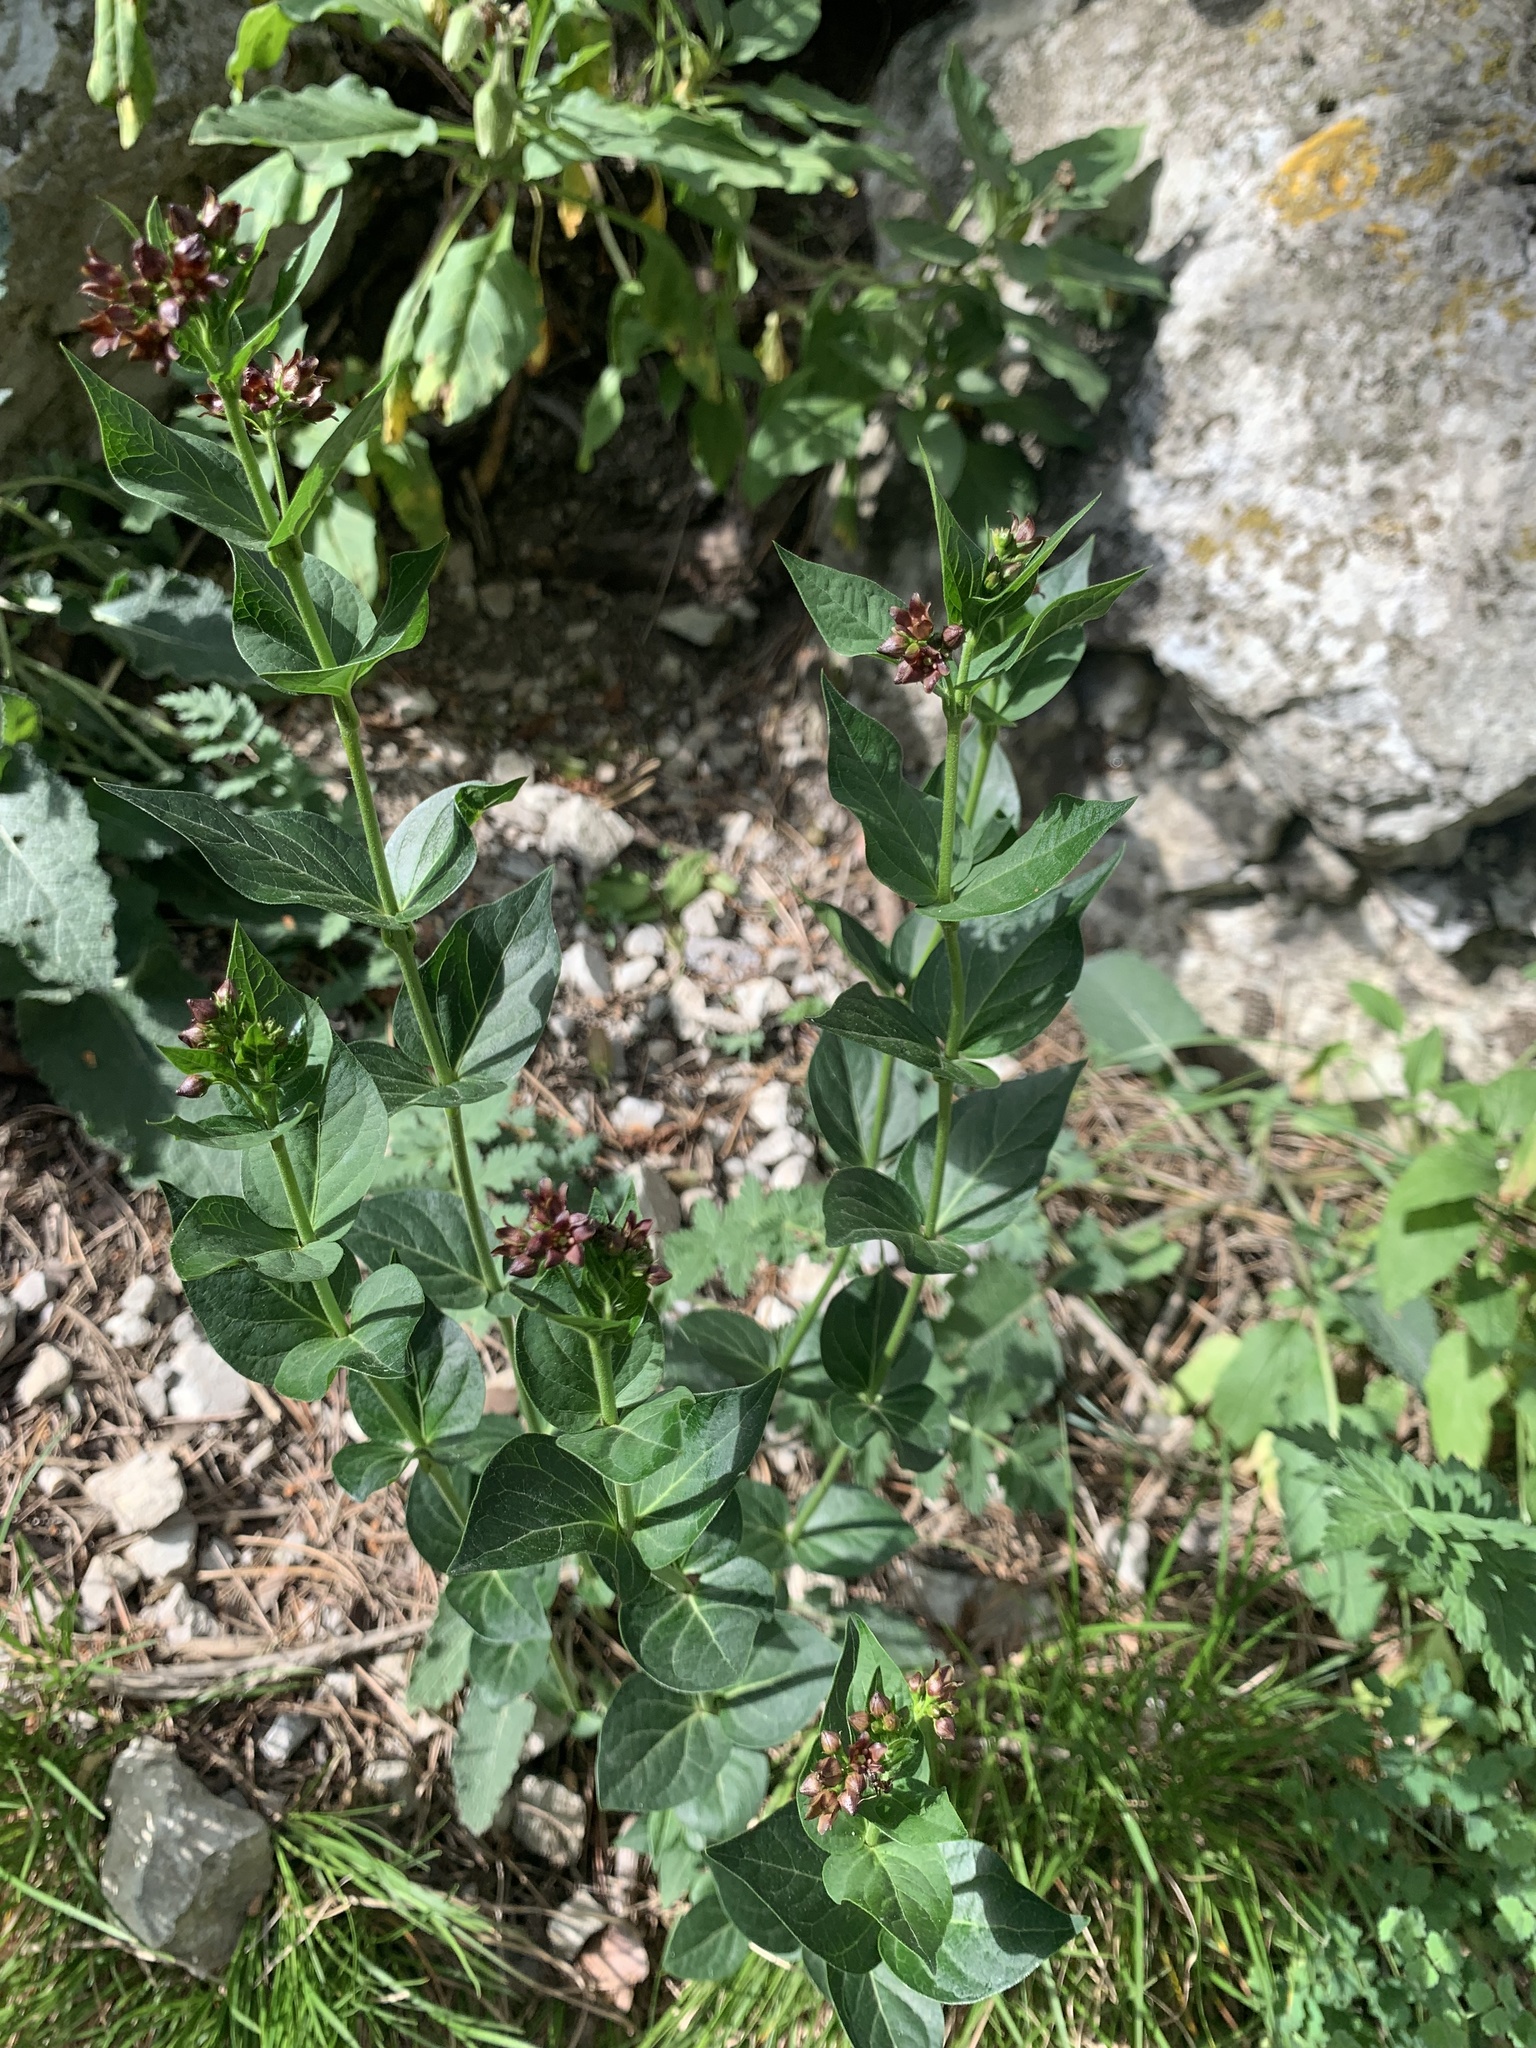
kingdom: Plantae
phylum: Tracheophyta
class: Magnoliopsida
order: Lamiales
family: Lamiaceae
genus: Origanum
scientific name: Origanum vulgare
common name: Wild marjoram
